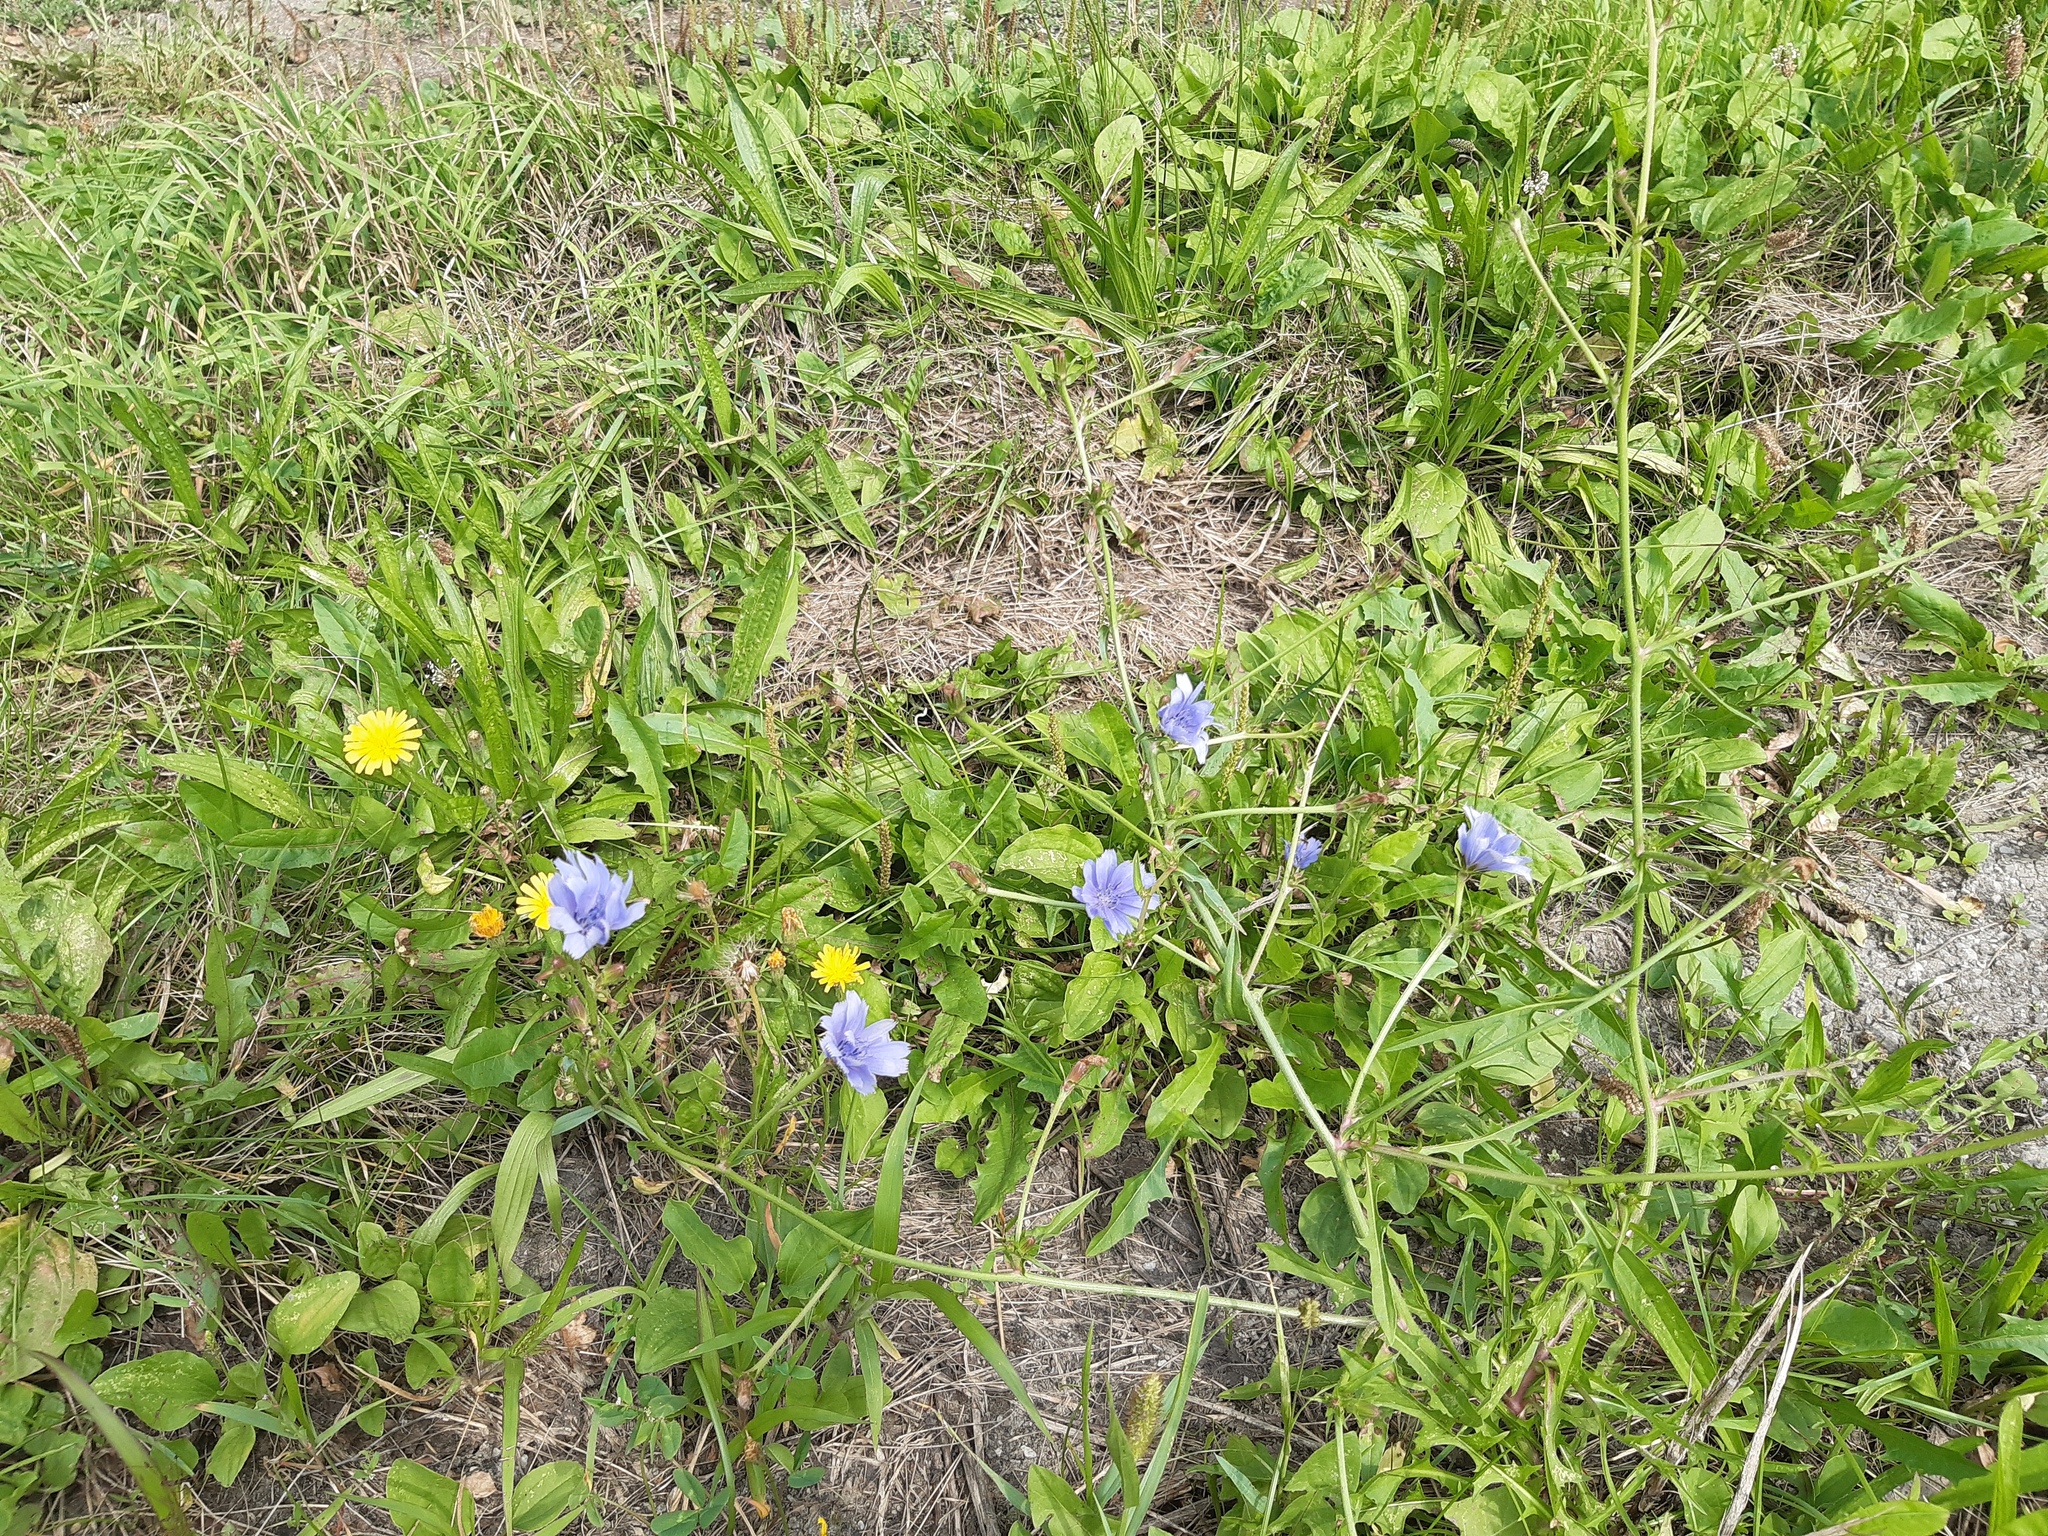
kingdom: Plantae
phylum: Tracheophyta
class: Magnoliopsida
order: Asterales
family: Asteraceae
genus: Cichorium
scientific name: Cichorium intybus
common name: Chicory
